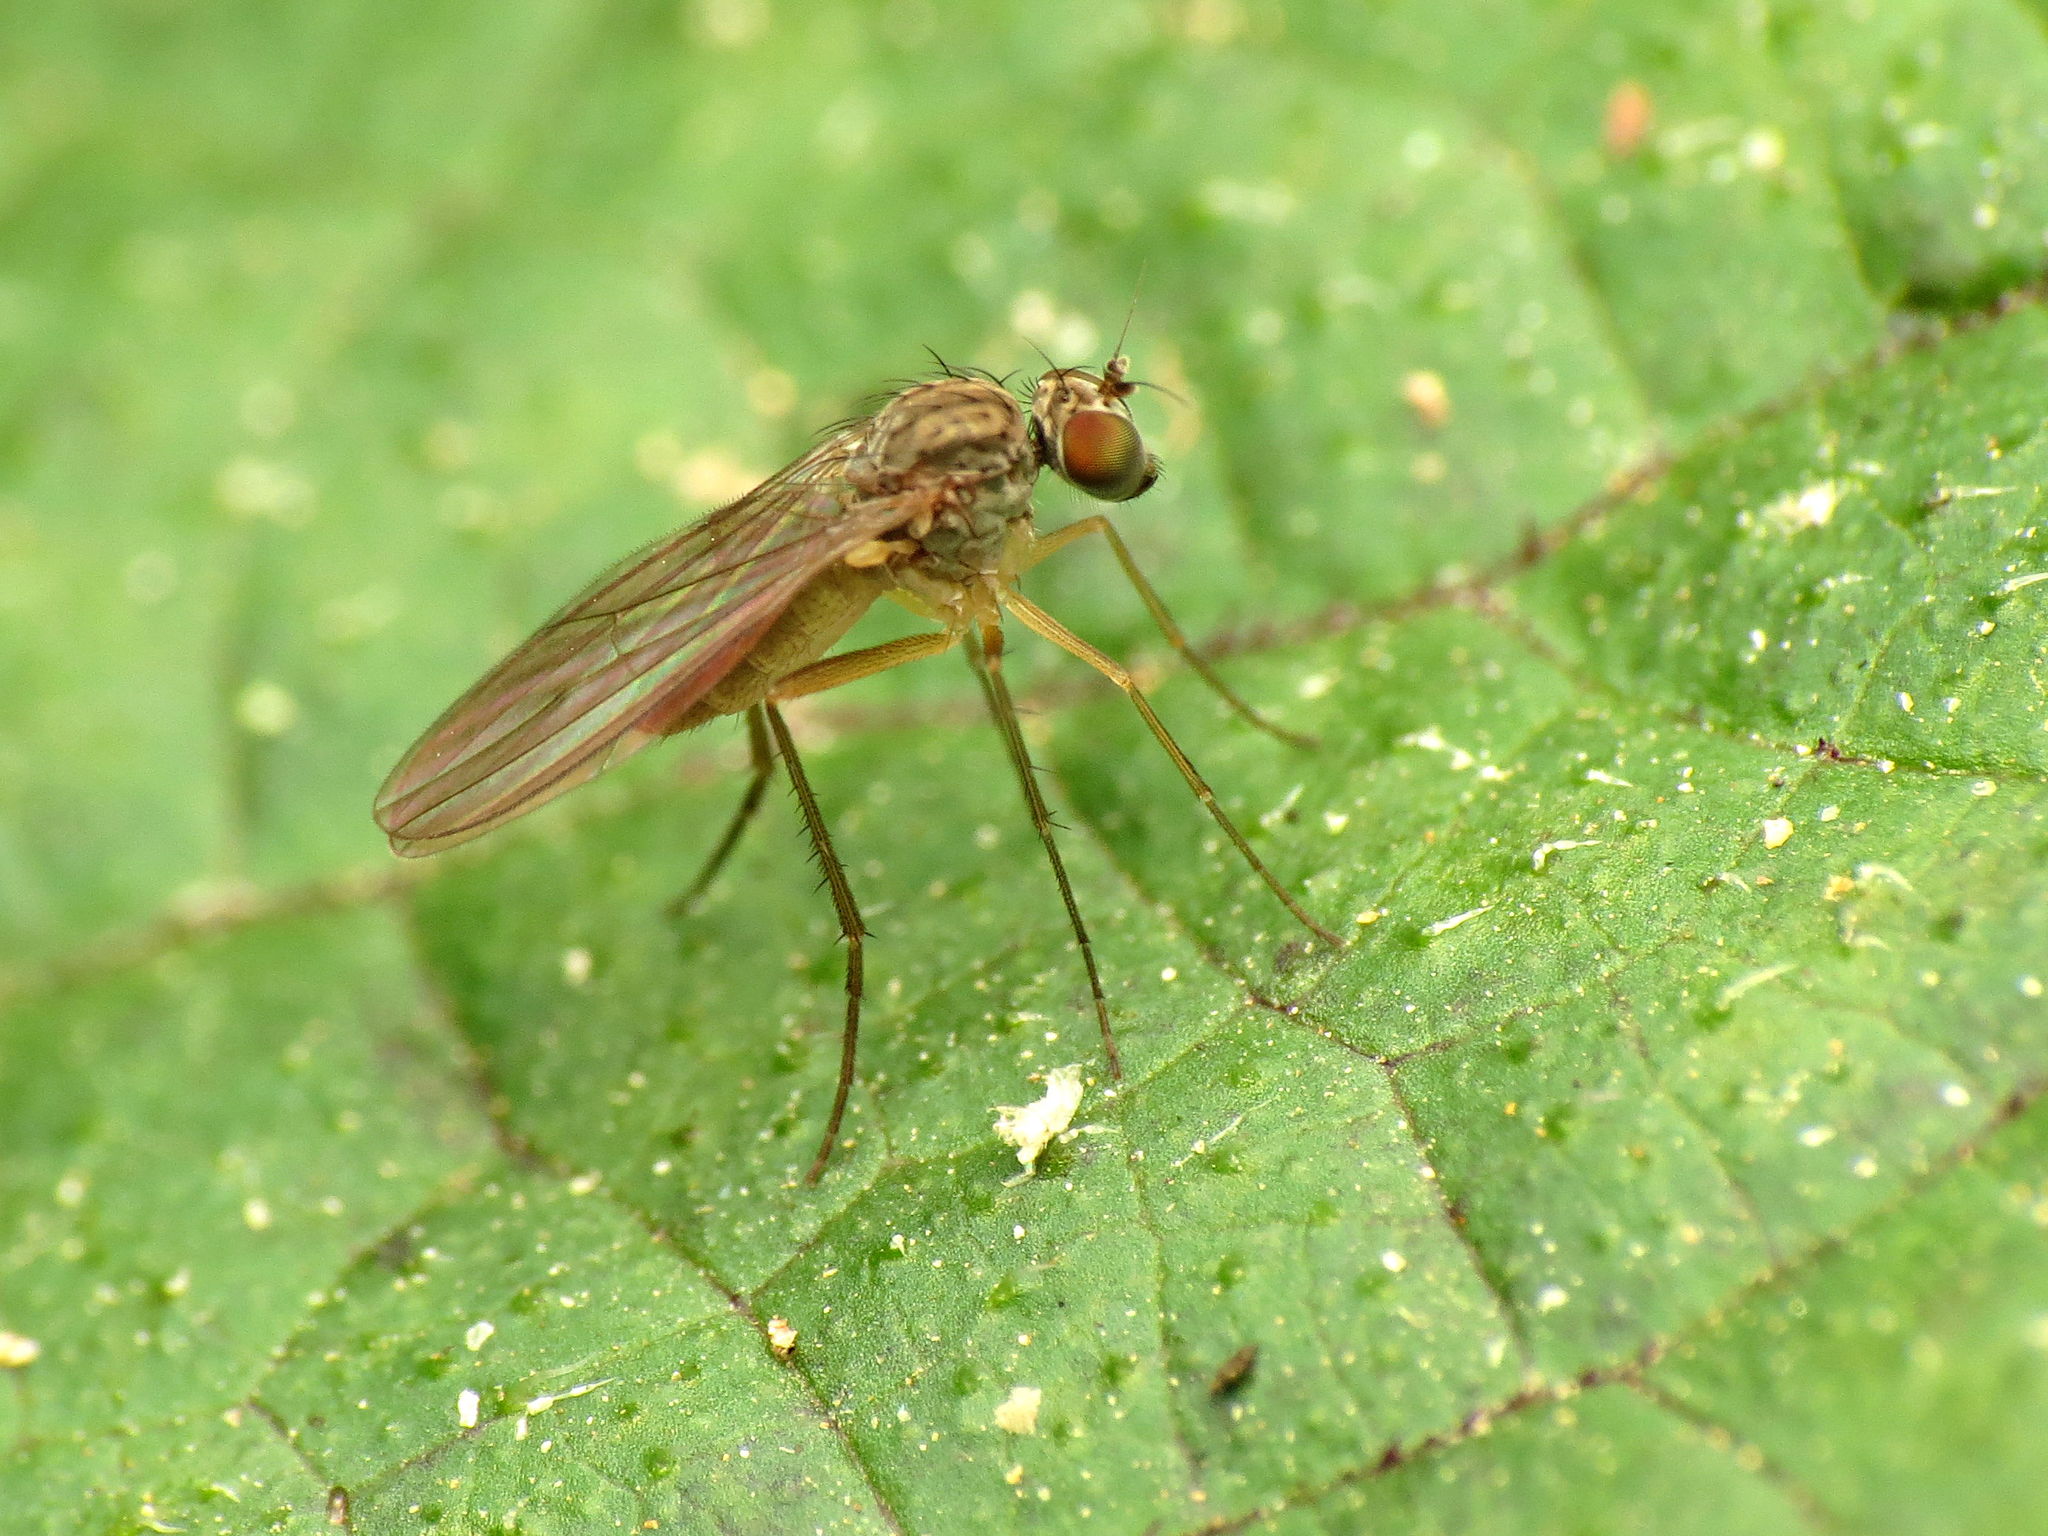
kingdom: Animalia
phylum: Arthropoda
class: Insecta
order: Diptera
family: Dolichopodidae
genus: Sympycnus
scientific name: Sympycnus lineatus
